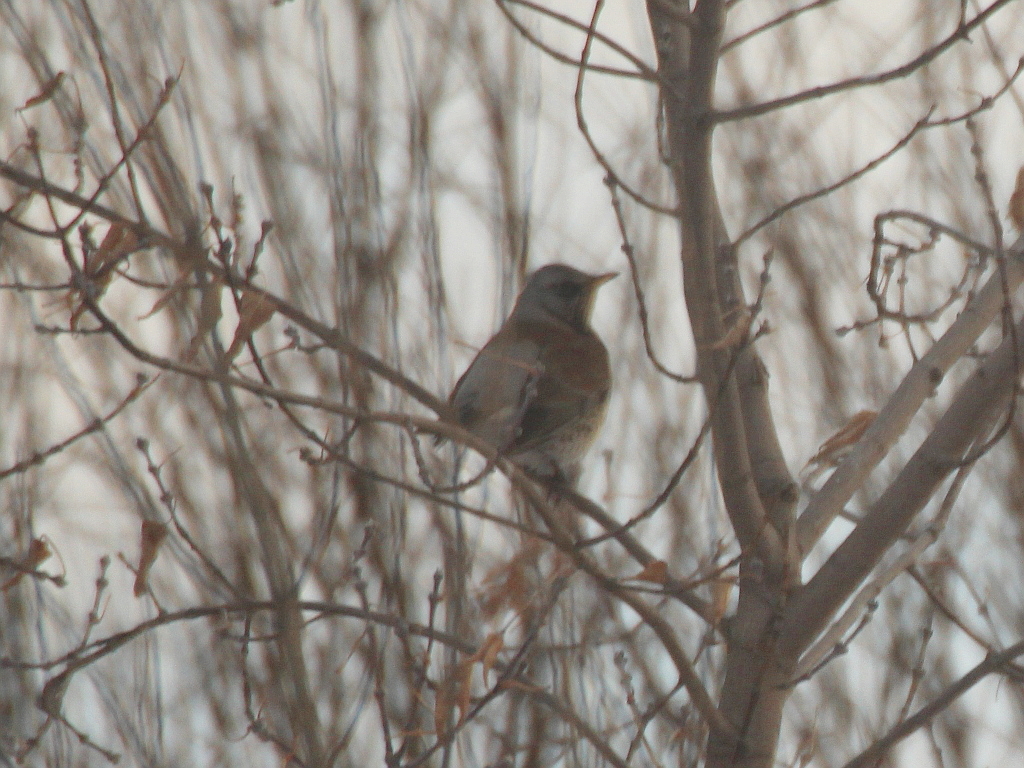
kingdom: Animalia
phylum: Chordata
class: Aves
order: Passeriformes
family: Turdidae
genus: Turdus
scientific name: Turdus pilaris
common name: Fieldfare
